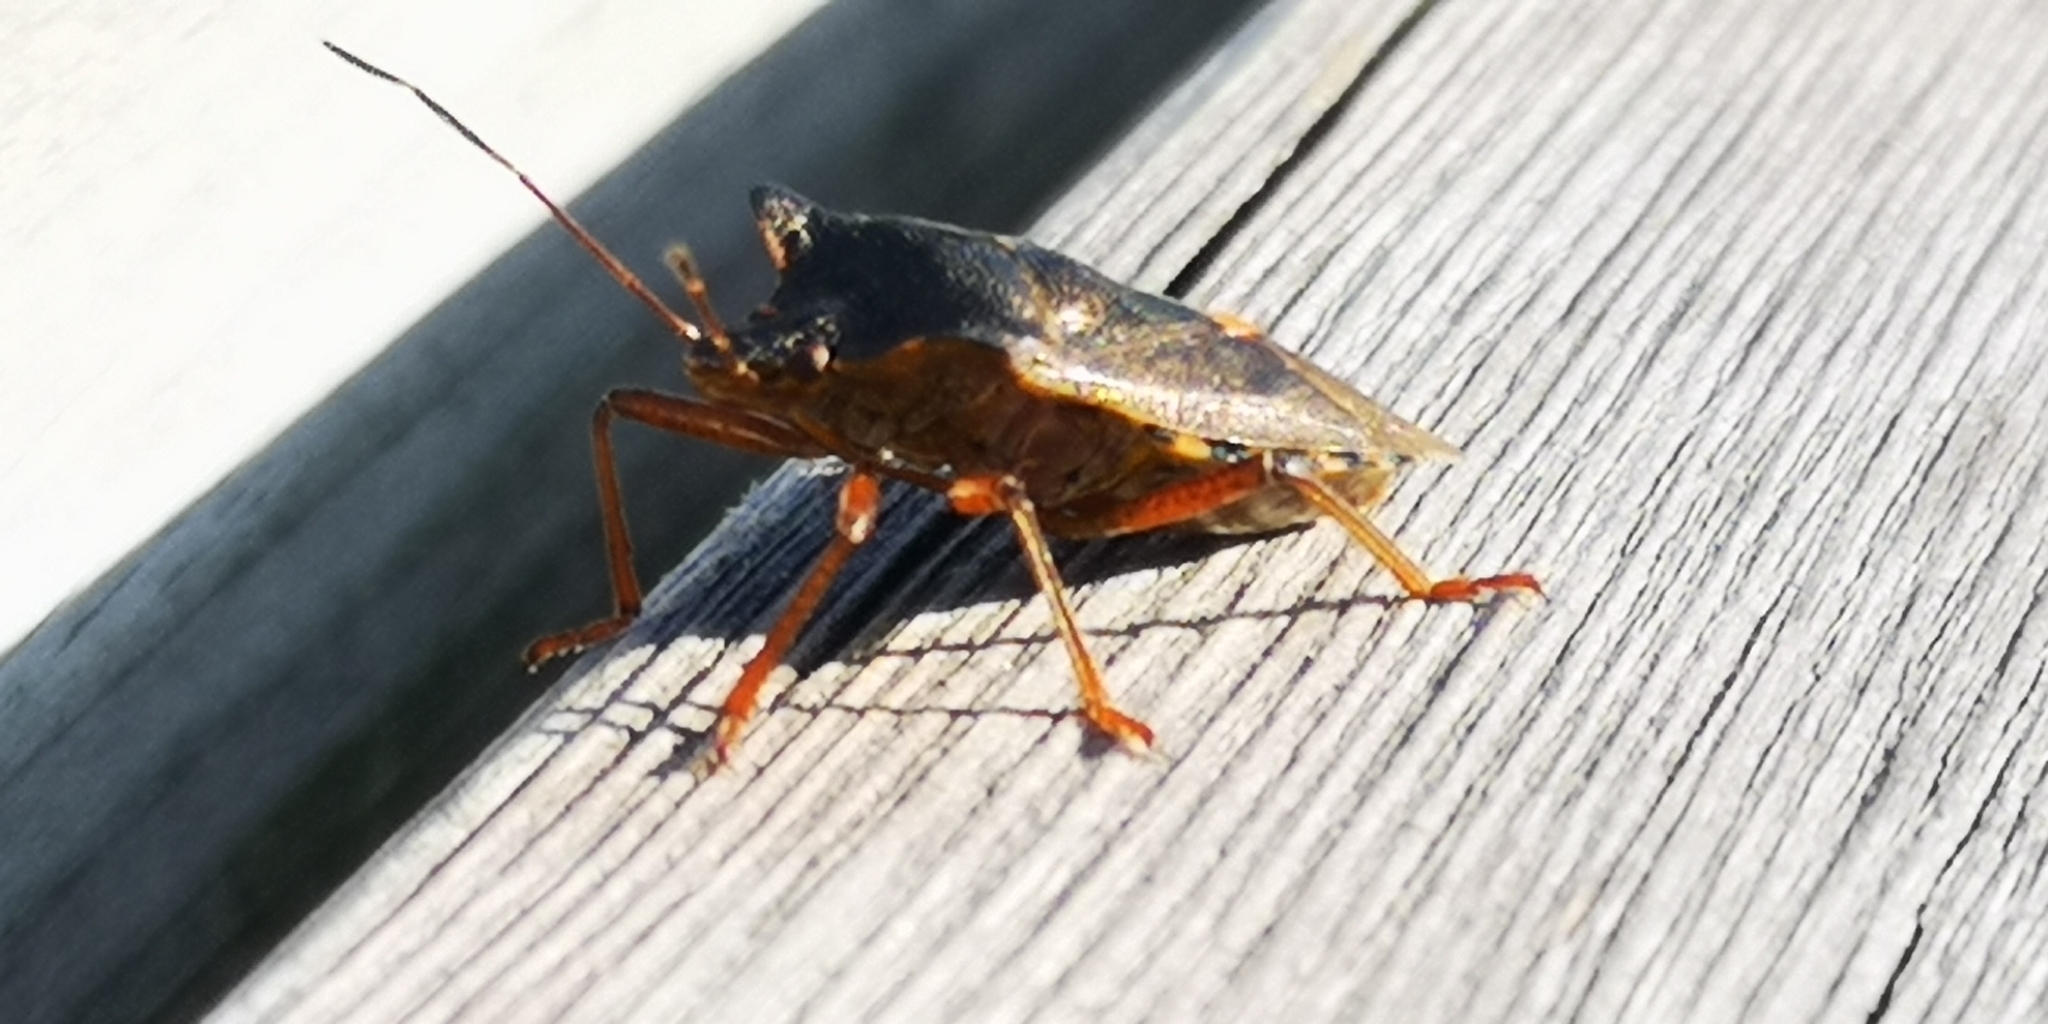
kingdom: Animalia
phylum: Arthropoda
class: Insecta
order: Hemiptera
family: Pentatomidae
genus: Pentatoma
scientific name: Pentatoma rufipes
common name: Forest bug
